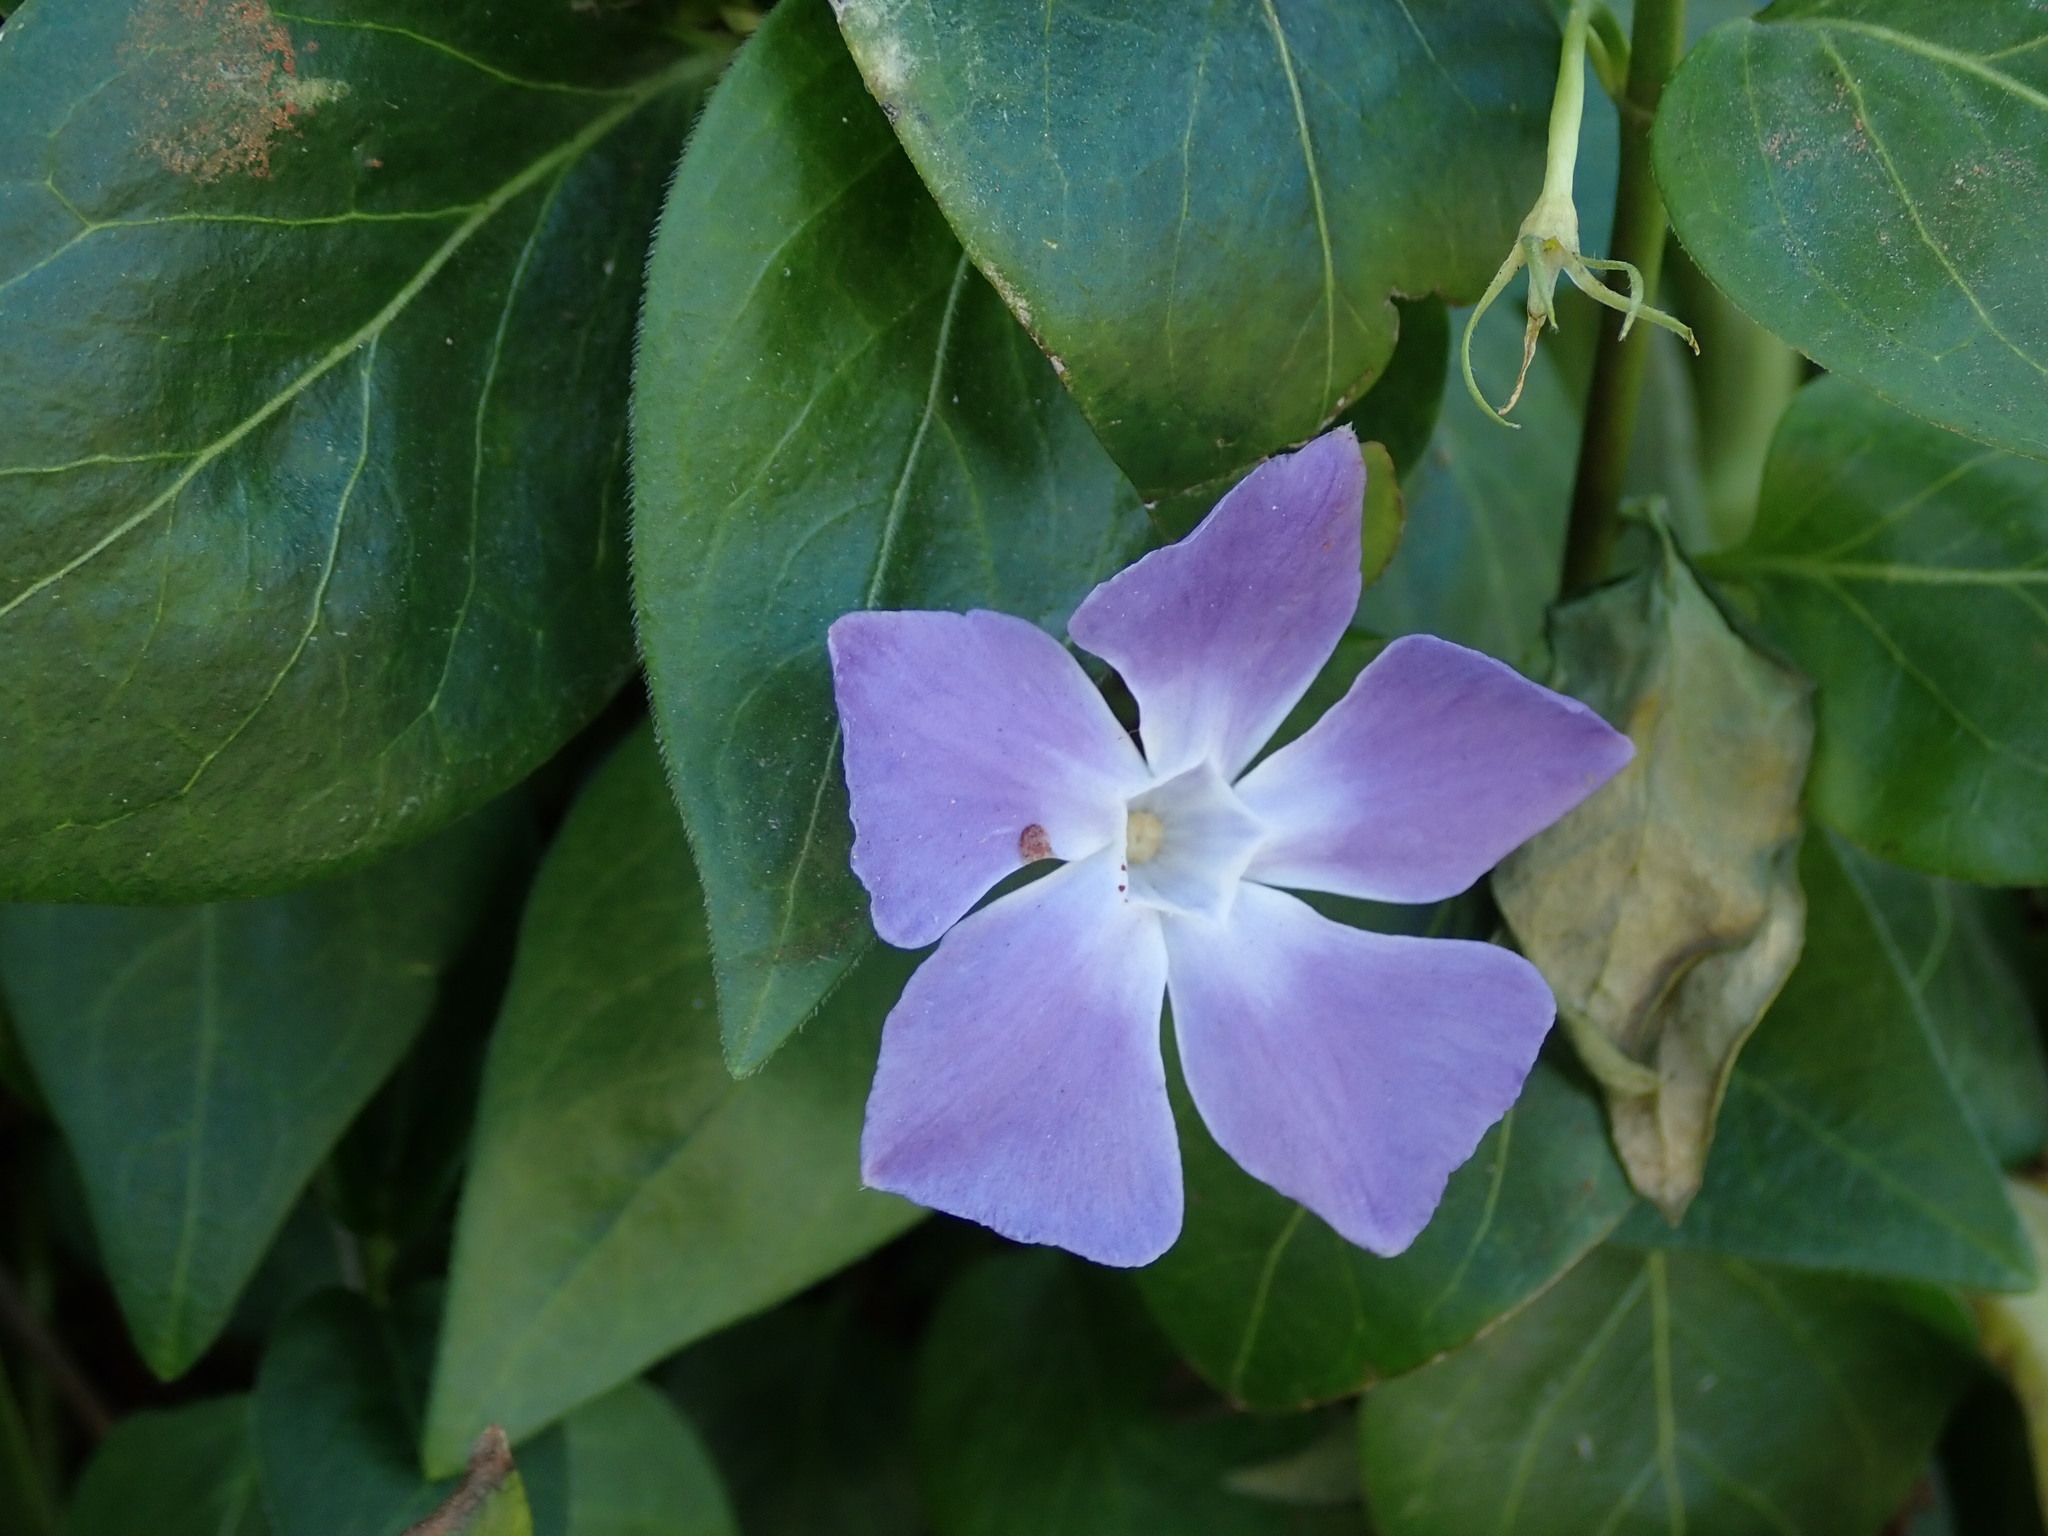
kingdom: Plantae
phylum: Tracheophyta
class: Magnoliopsida
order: Gentianales
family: Apocynaceae
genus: Vinca
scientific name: Vinca major
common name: Greater periwinkle
